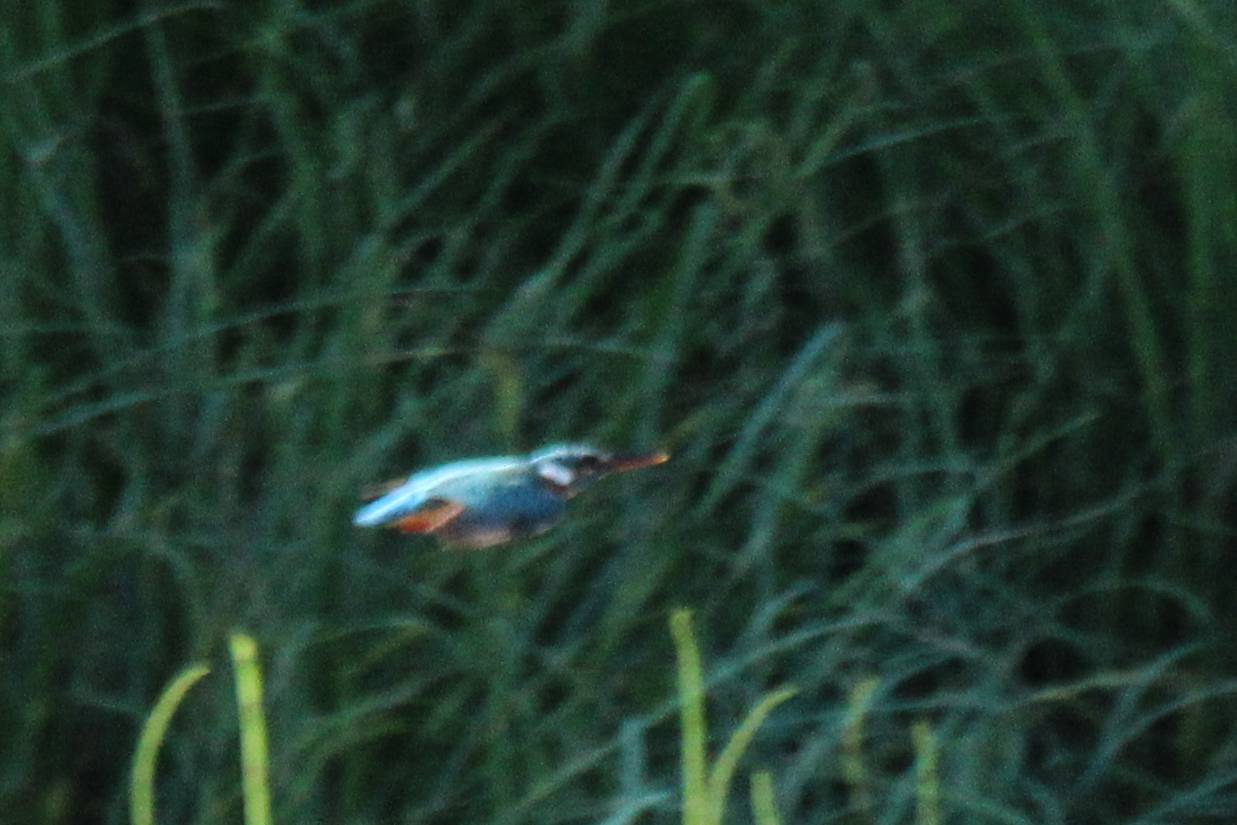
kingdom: Animalia
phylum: Chordata
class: Aves
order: Coraciiformes
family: Alcedinidae
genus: Alcedo
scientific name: Alcedo atthis
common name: Common kingfisher
